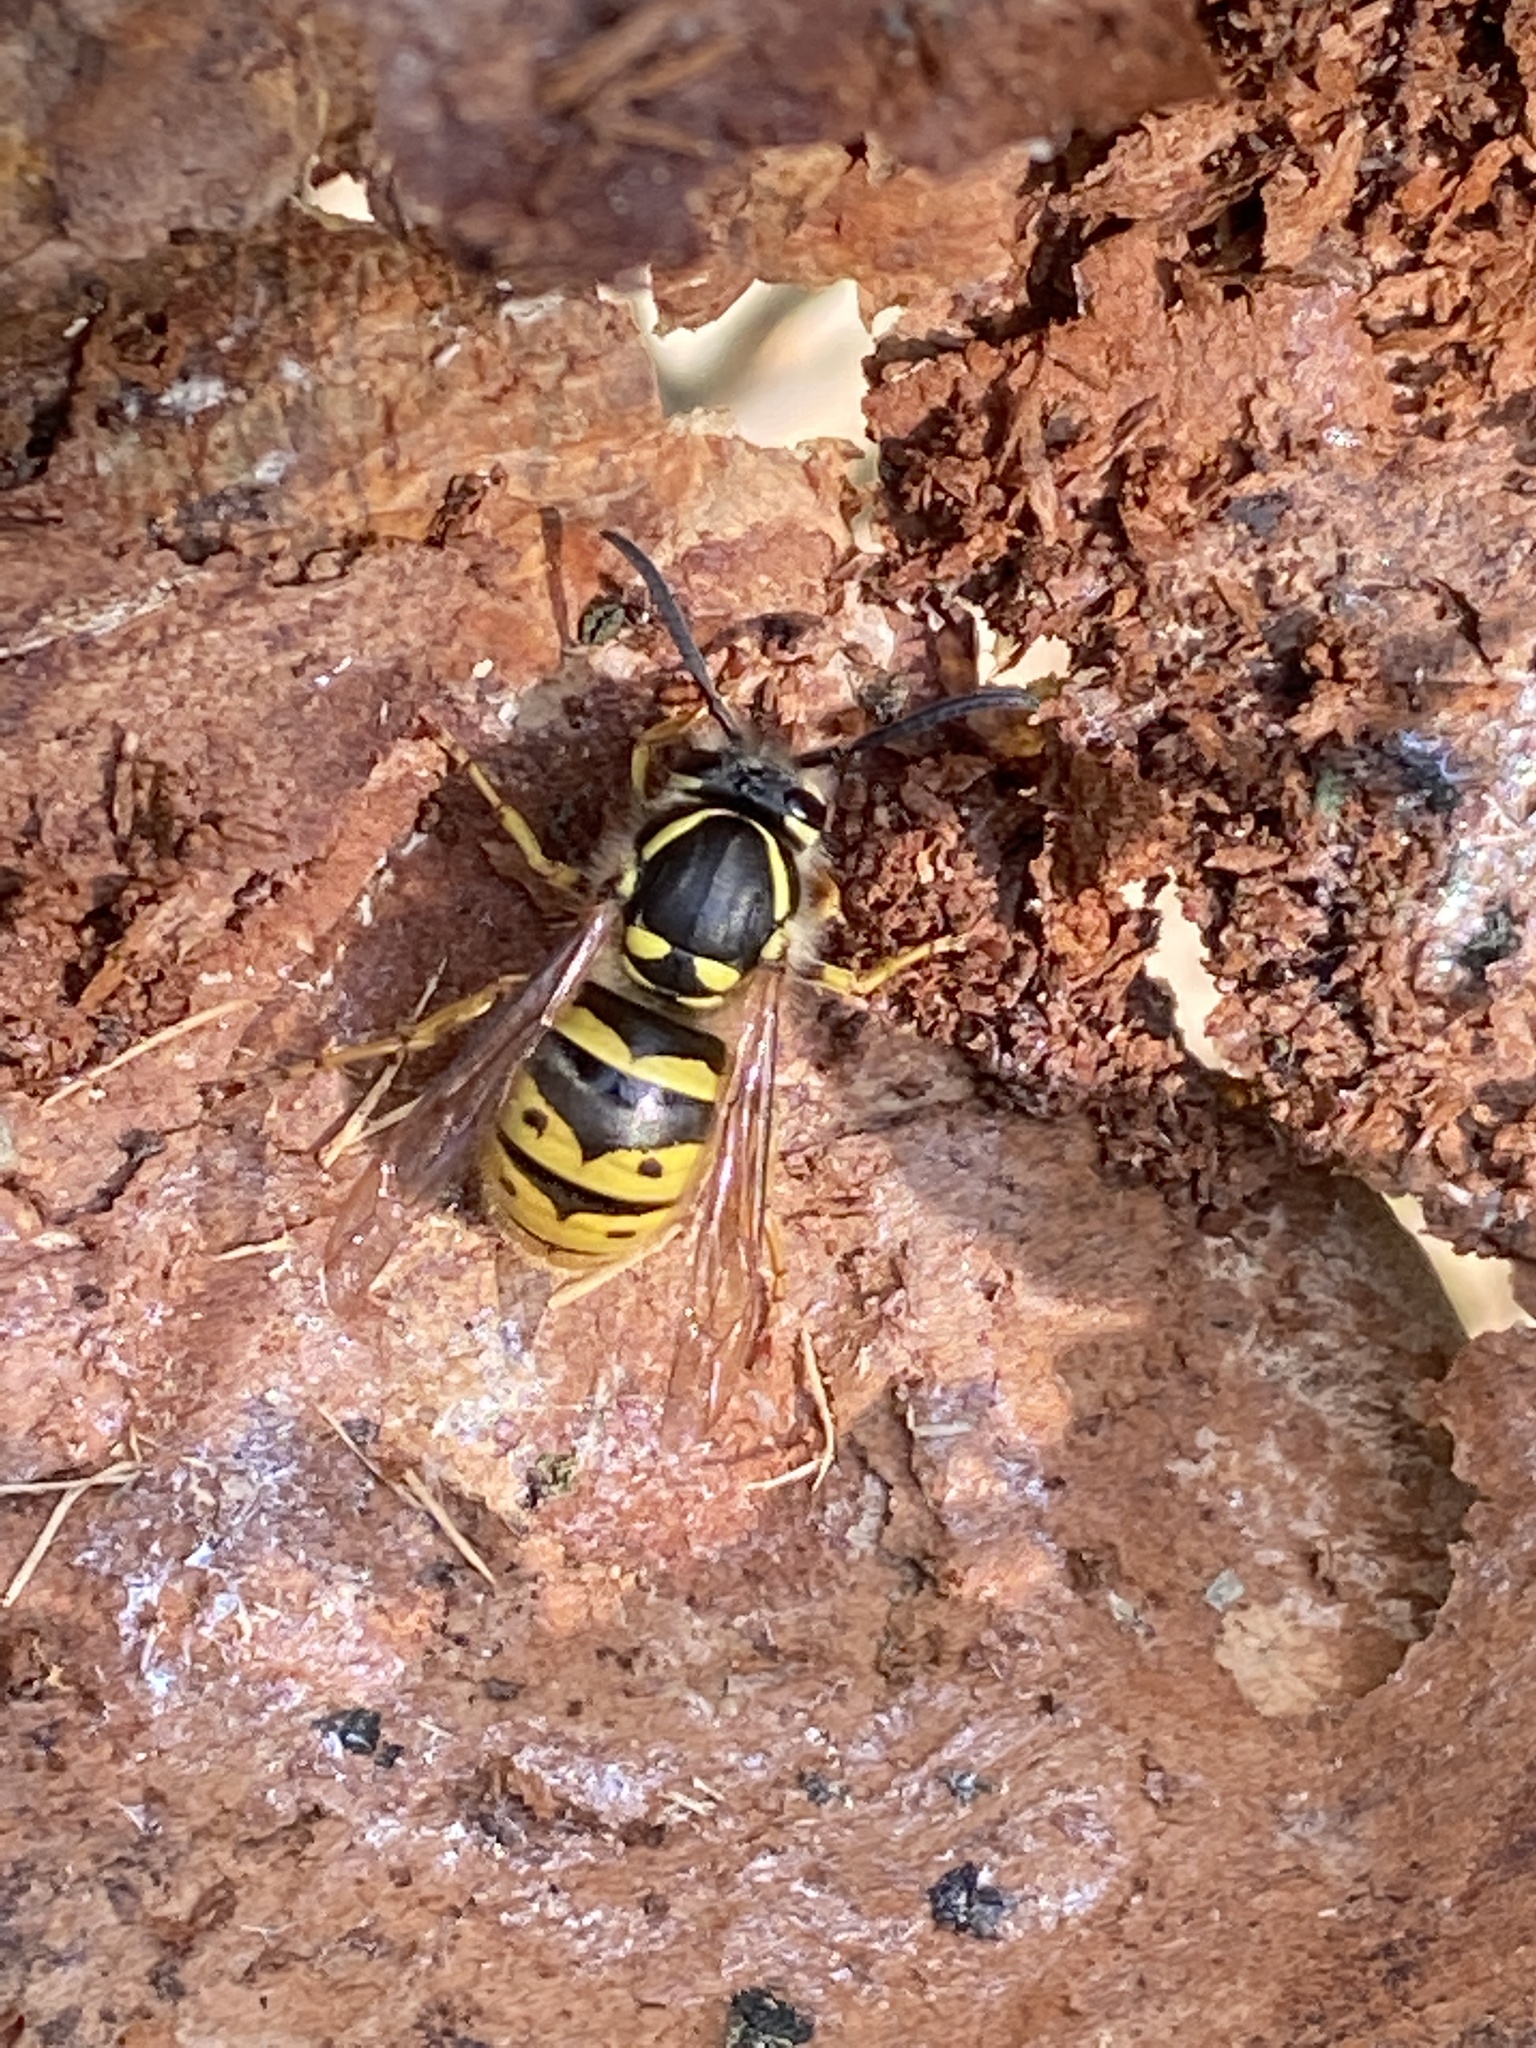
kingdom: Animalia
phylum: Arthropoda
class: Insecta
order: Hymenoptera
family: Vespidae
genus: Vespula
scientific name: Vespula vulgaris
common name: Common wasp
